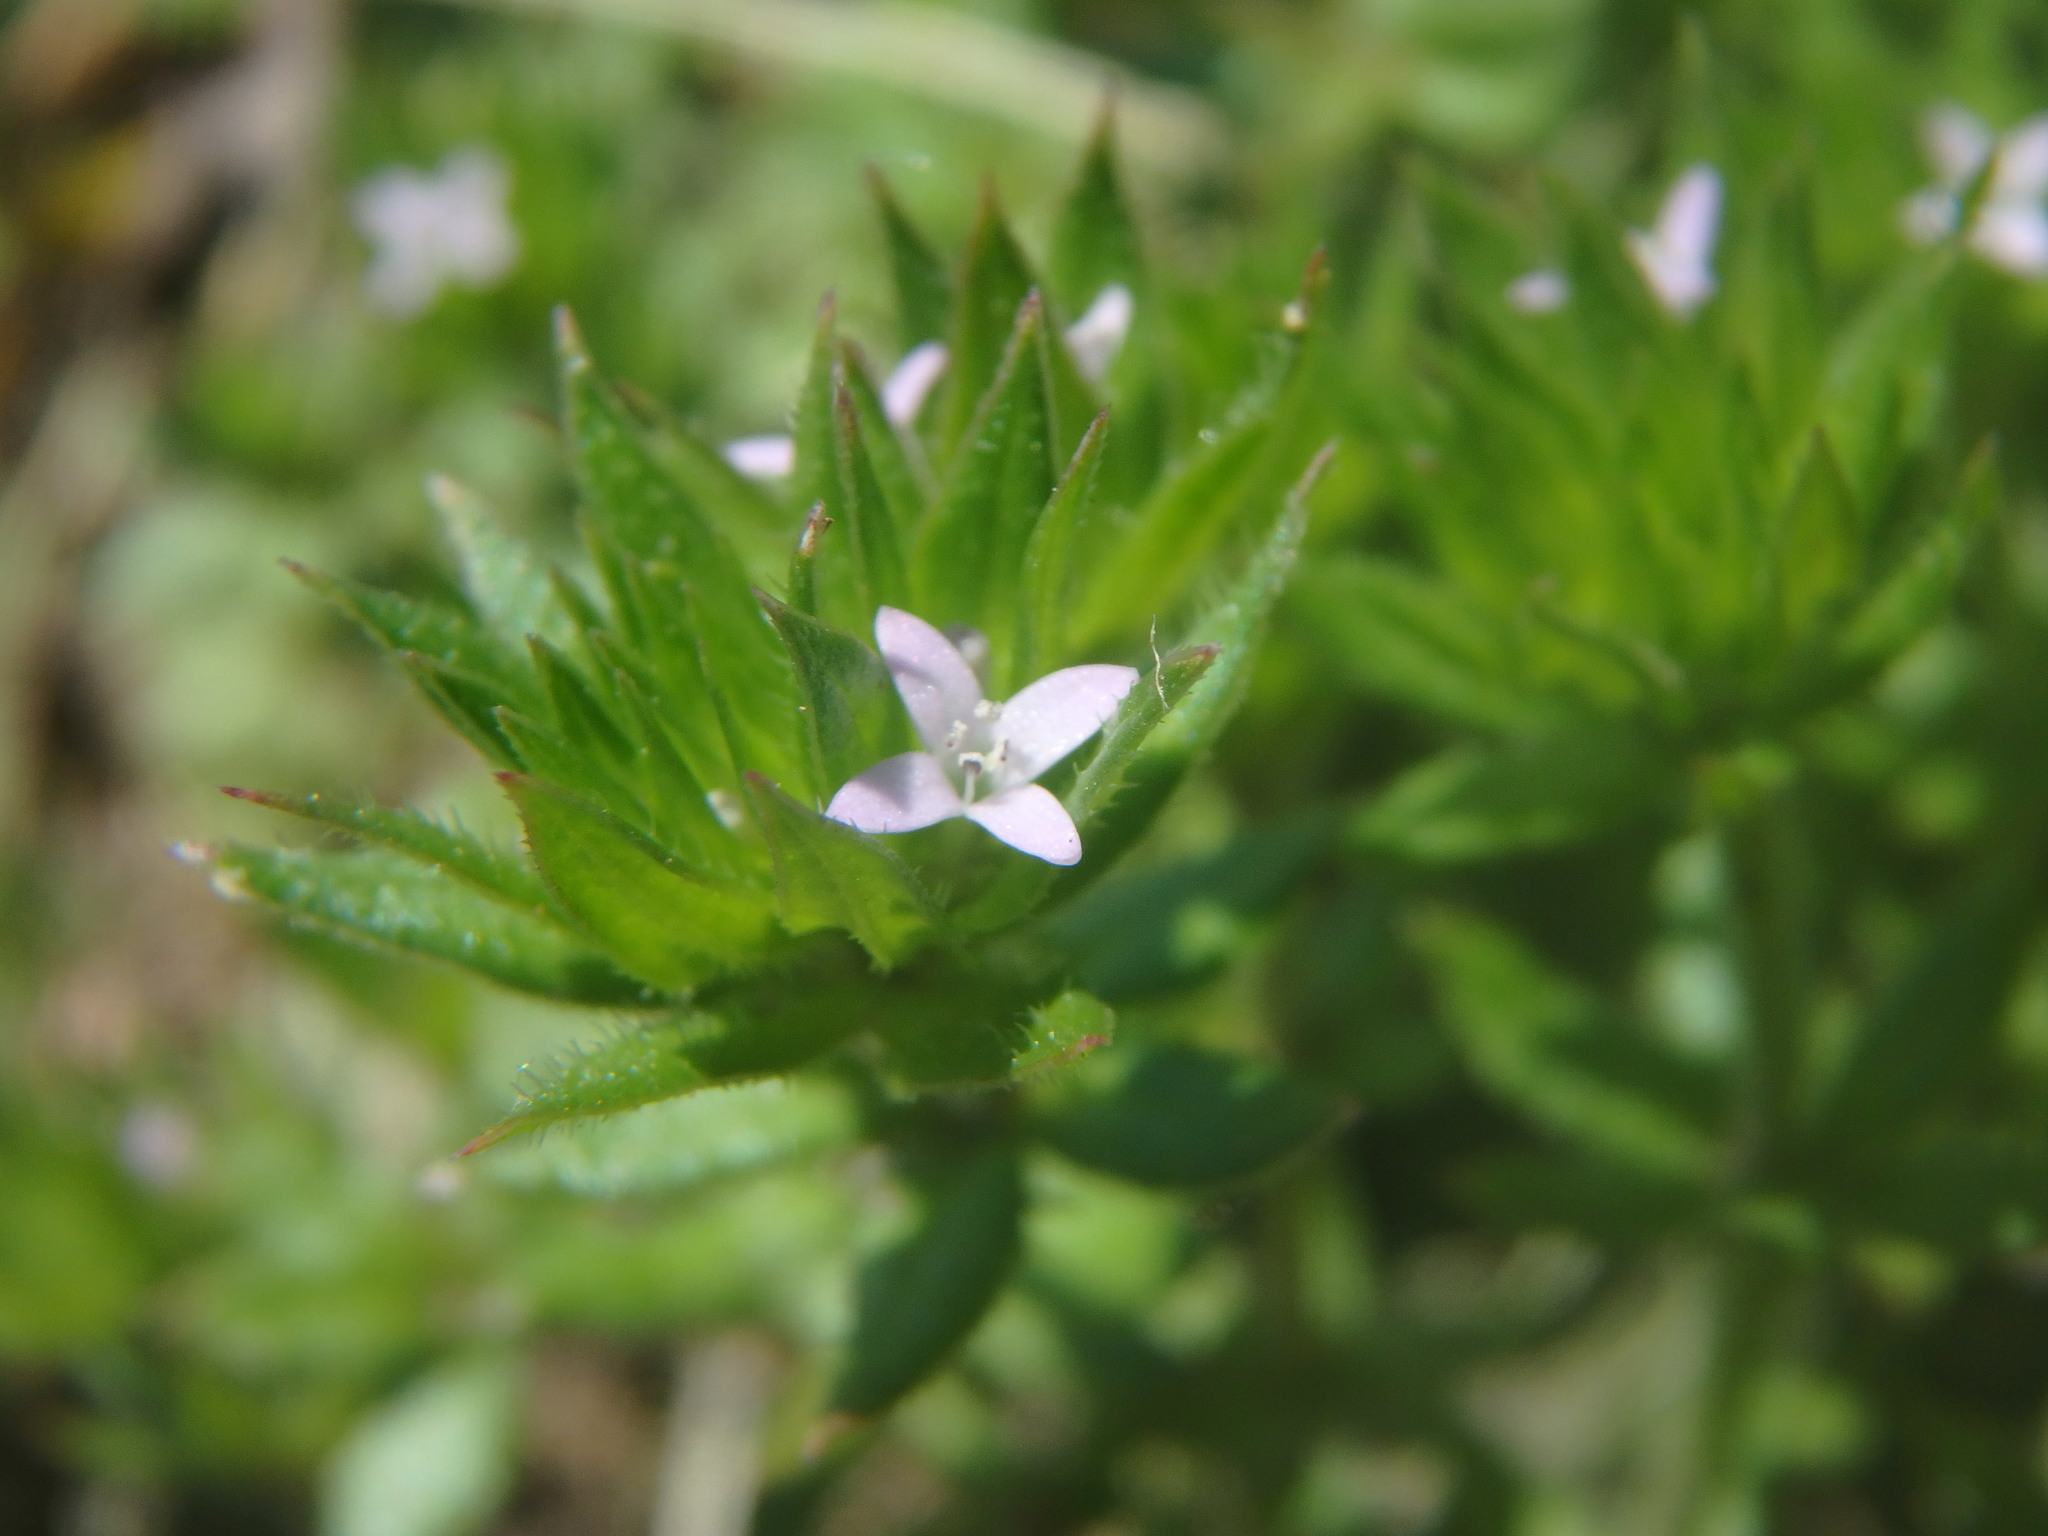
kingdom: Plantae
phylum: Tracheophyta
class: Magnoliopsida
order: Gentianales
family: Rubiaceae
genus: Sherardia
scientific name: Sherardia arvensis
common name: Field madder
